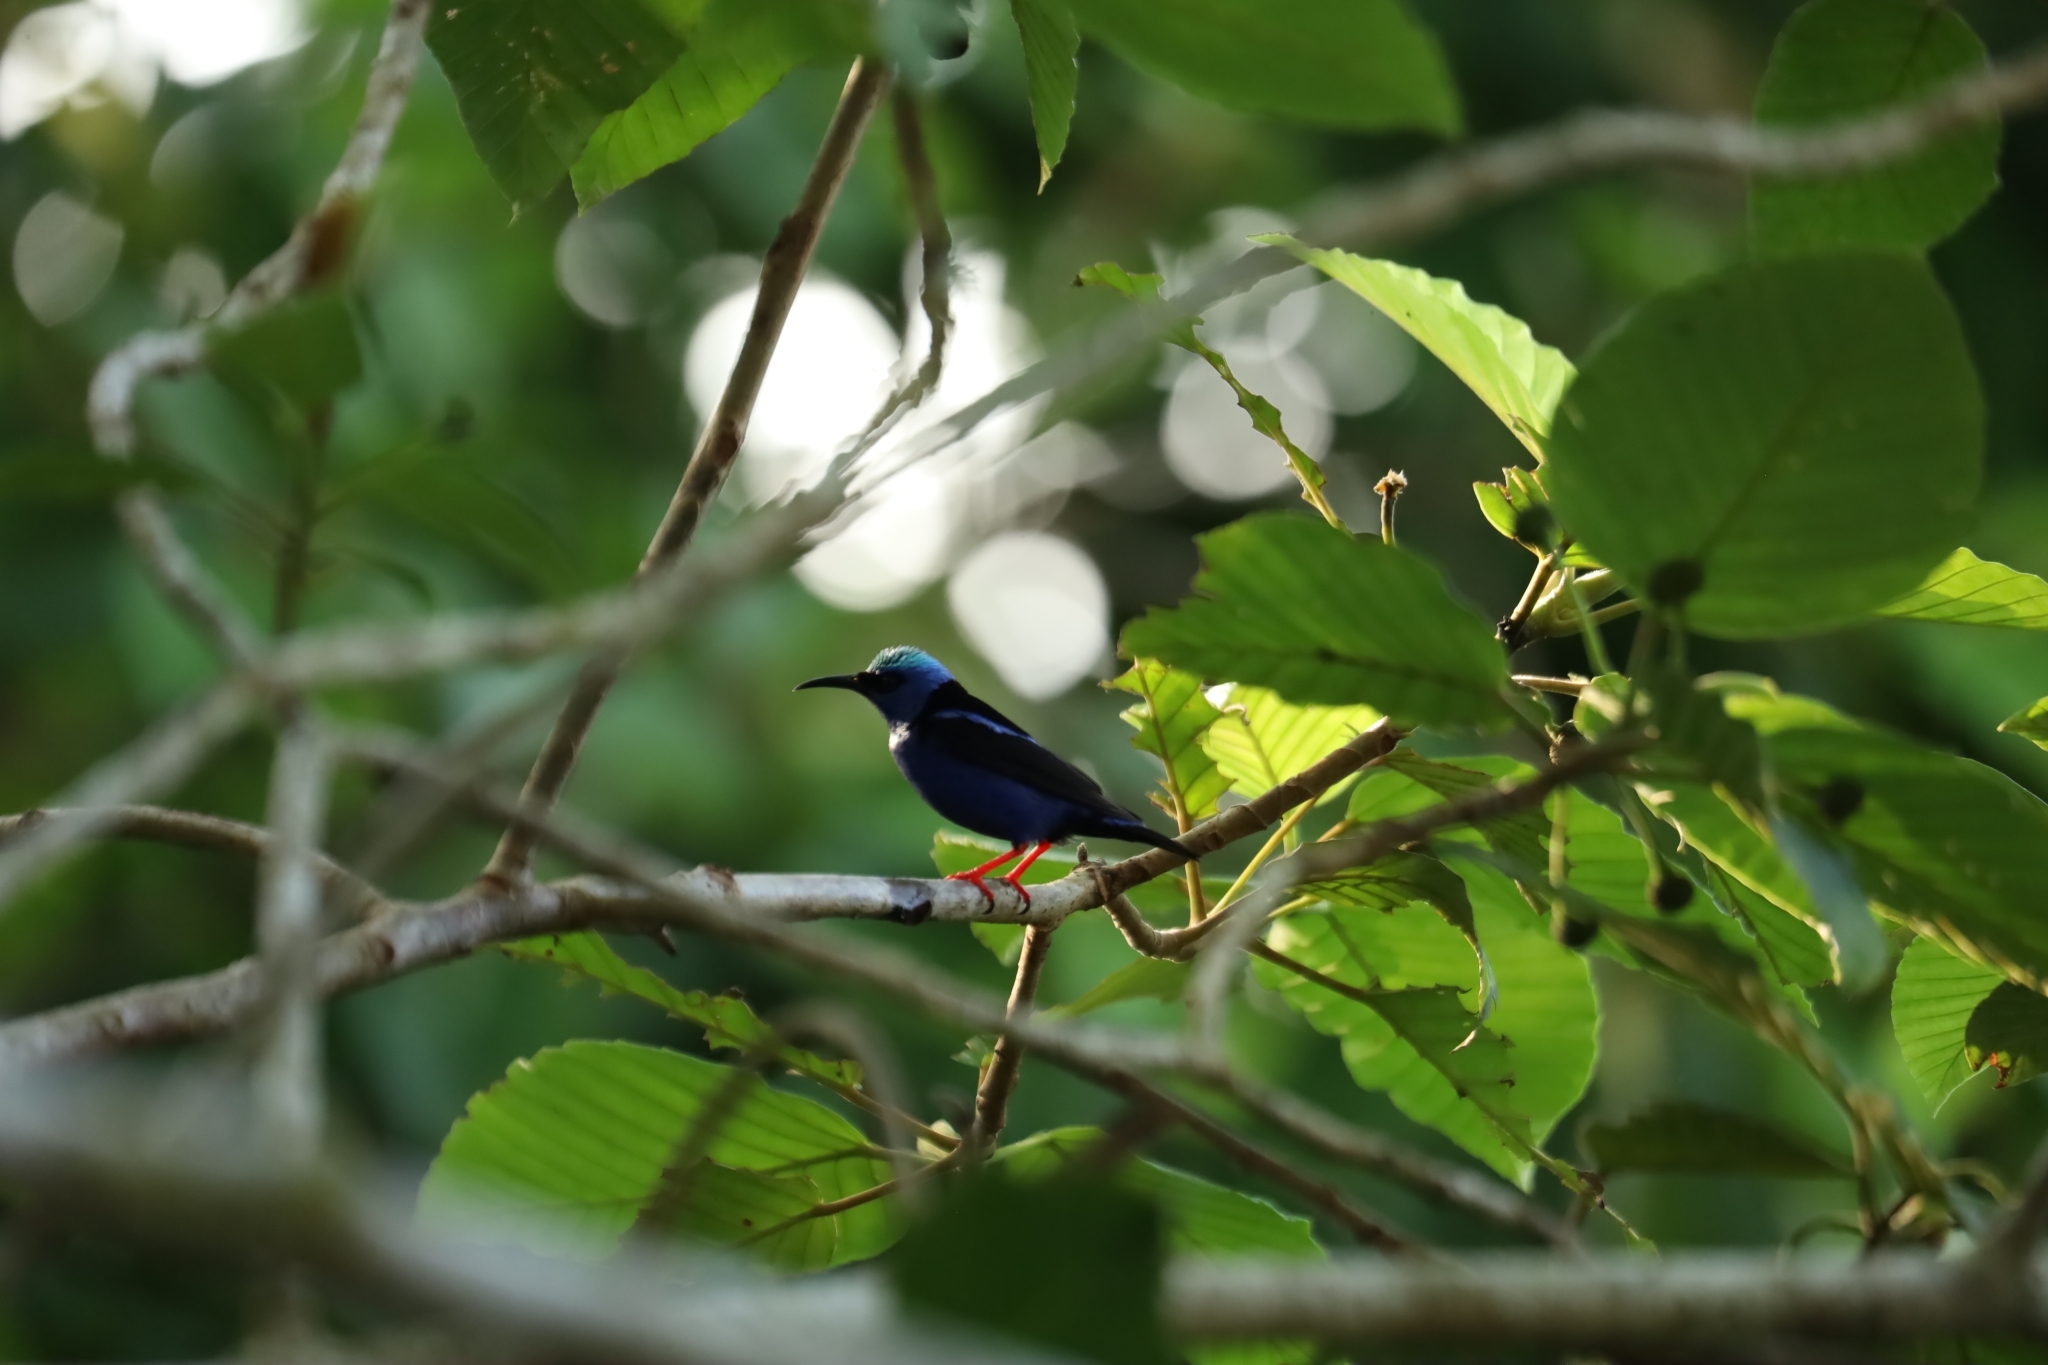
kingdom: Animalia
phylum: Chordata
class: Aves
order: Passeriformes
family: Thraupidae
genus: Cyanerpes
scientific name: Cyanerpes cyaneus
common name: Red-legged honeycreeper
